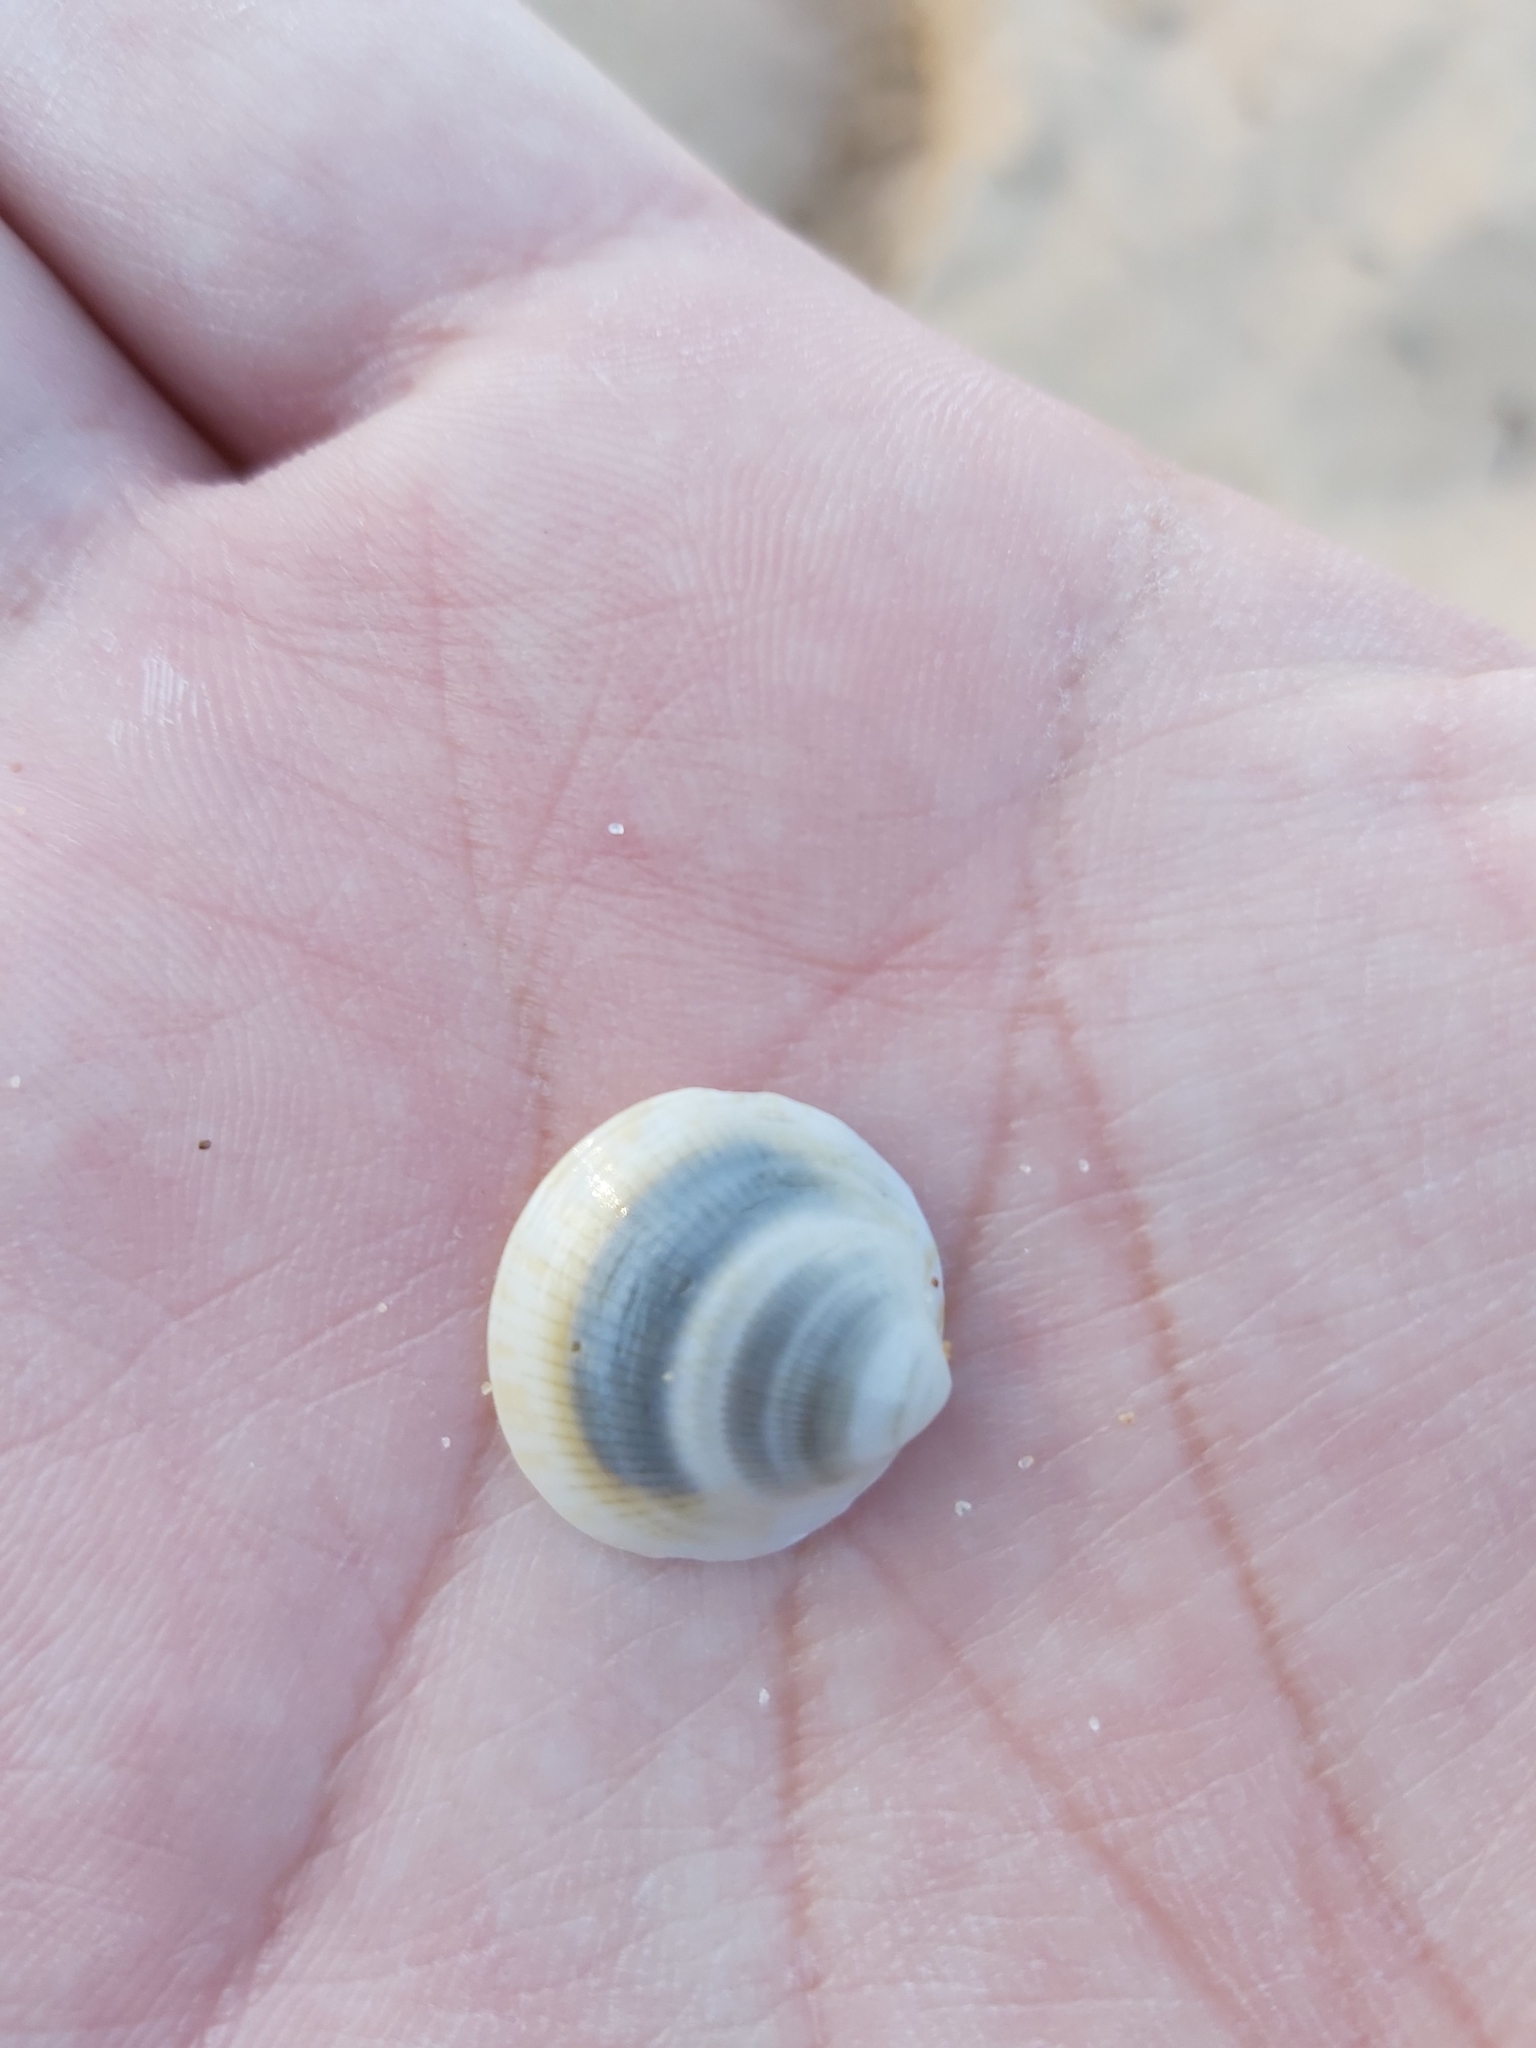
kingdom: Animalia
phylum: Mollusca
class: Bivalvia
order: Arcida
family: Glycymerididae
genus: Glycymeris
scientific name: Glycymeris grayana
